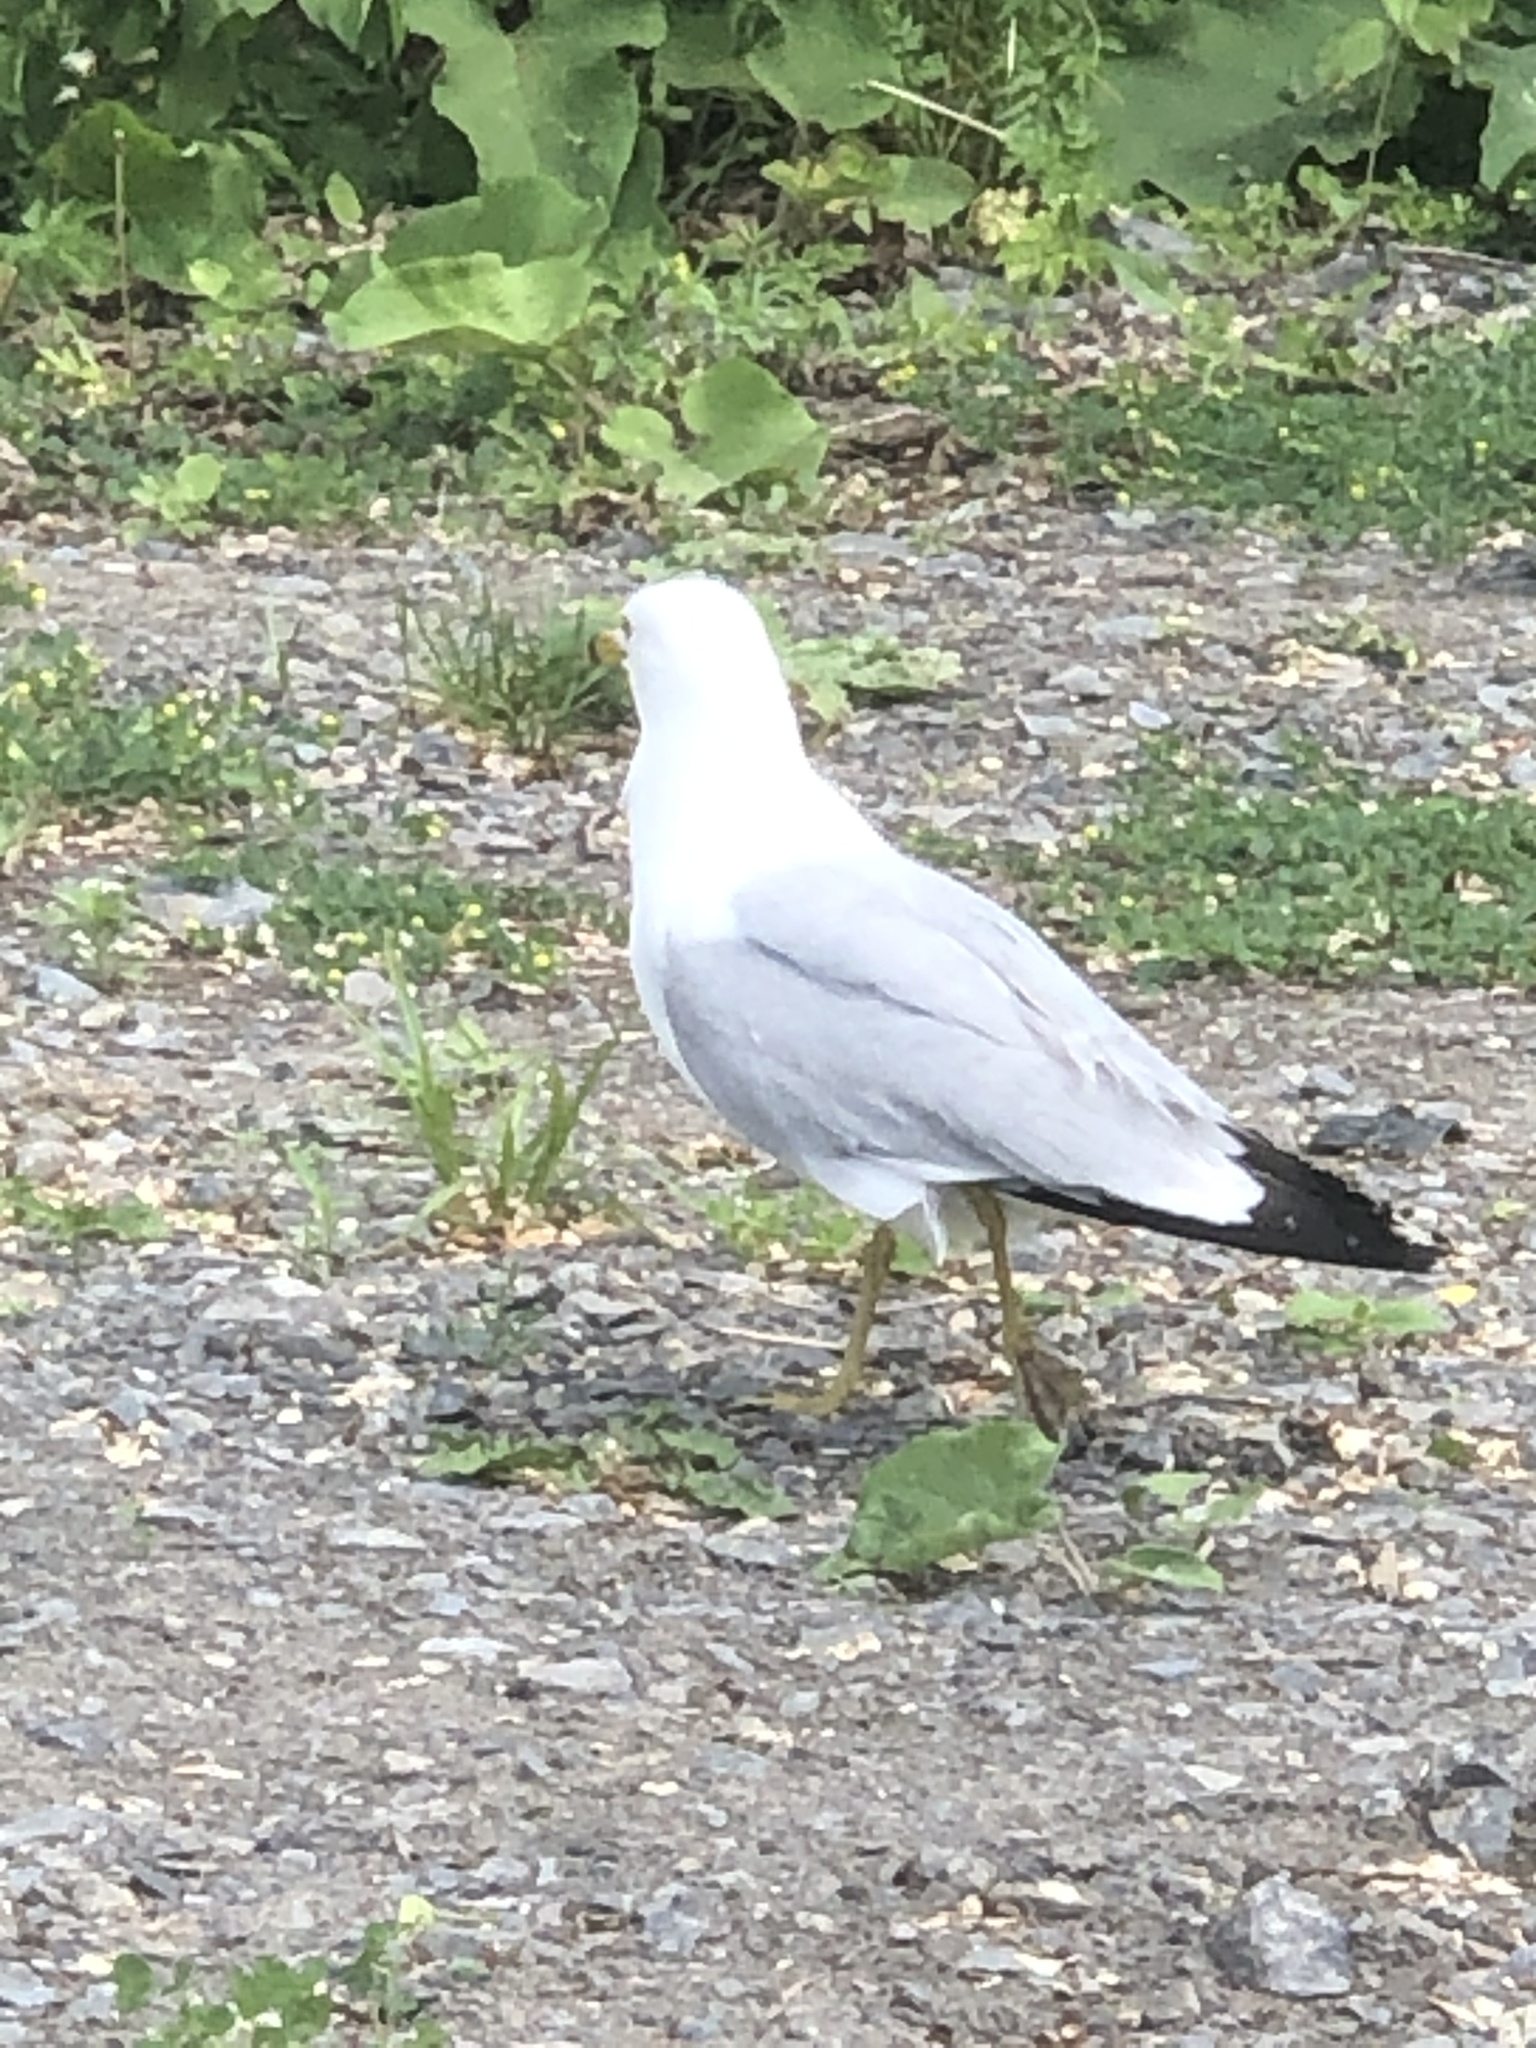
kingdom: Animalia
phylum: Chordata
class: Aves
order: Charadriiformes
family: Laridae
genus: Larus
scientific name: Larus delawarensis
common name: Ring-billed gull
